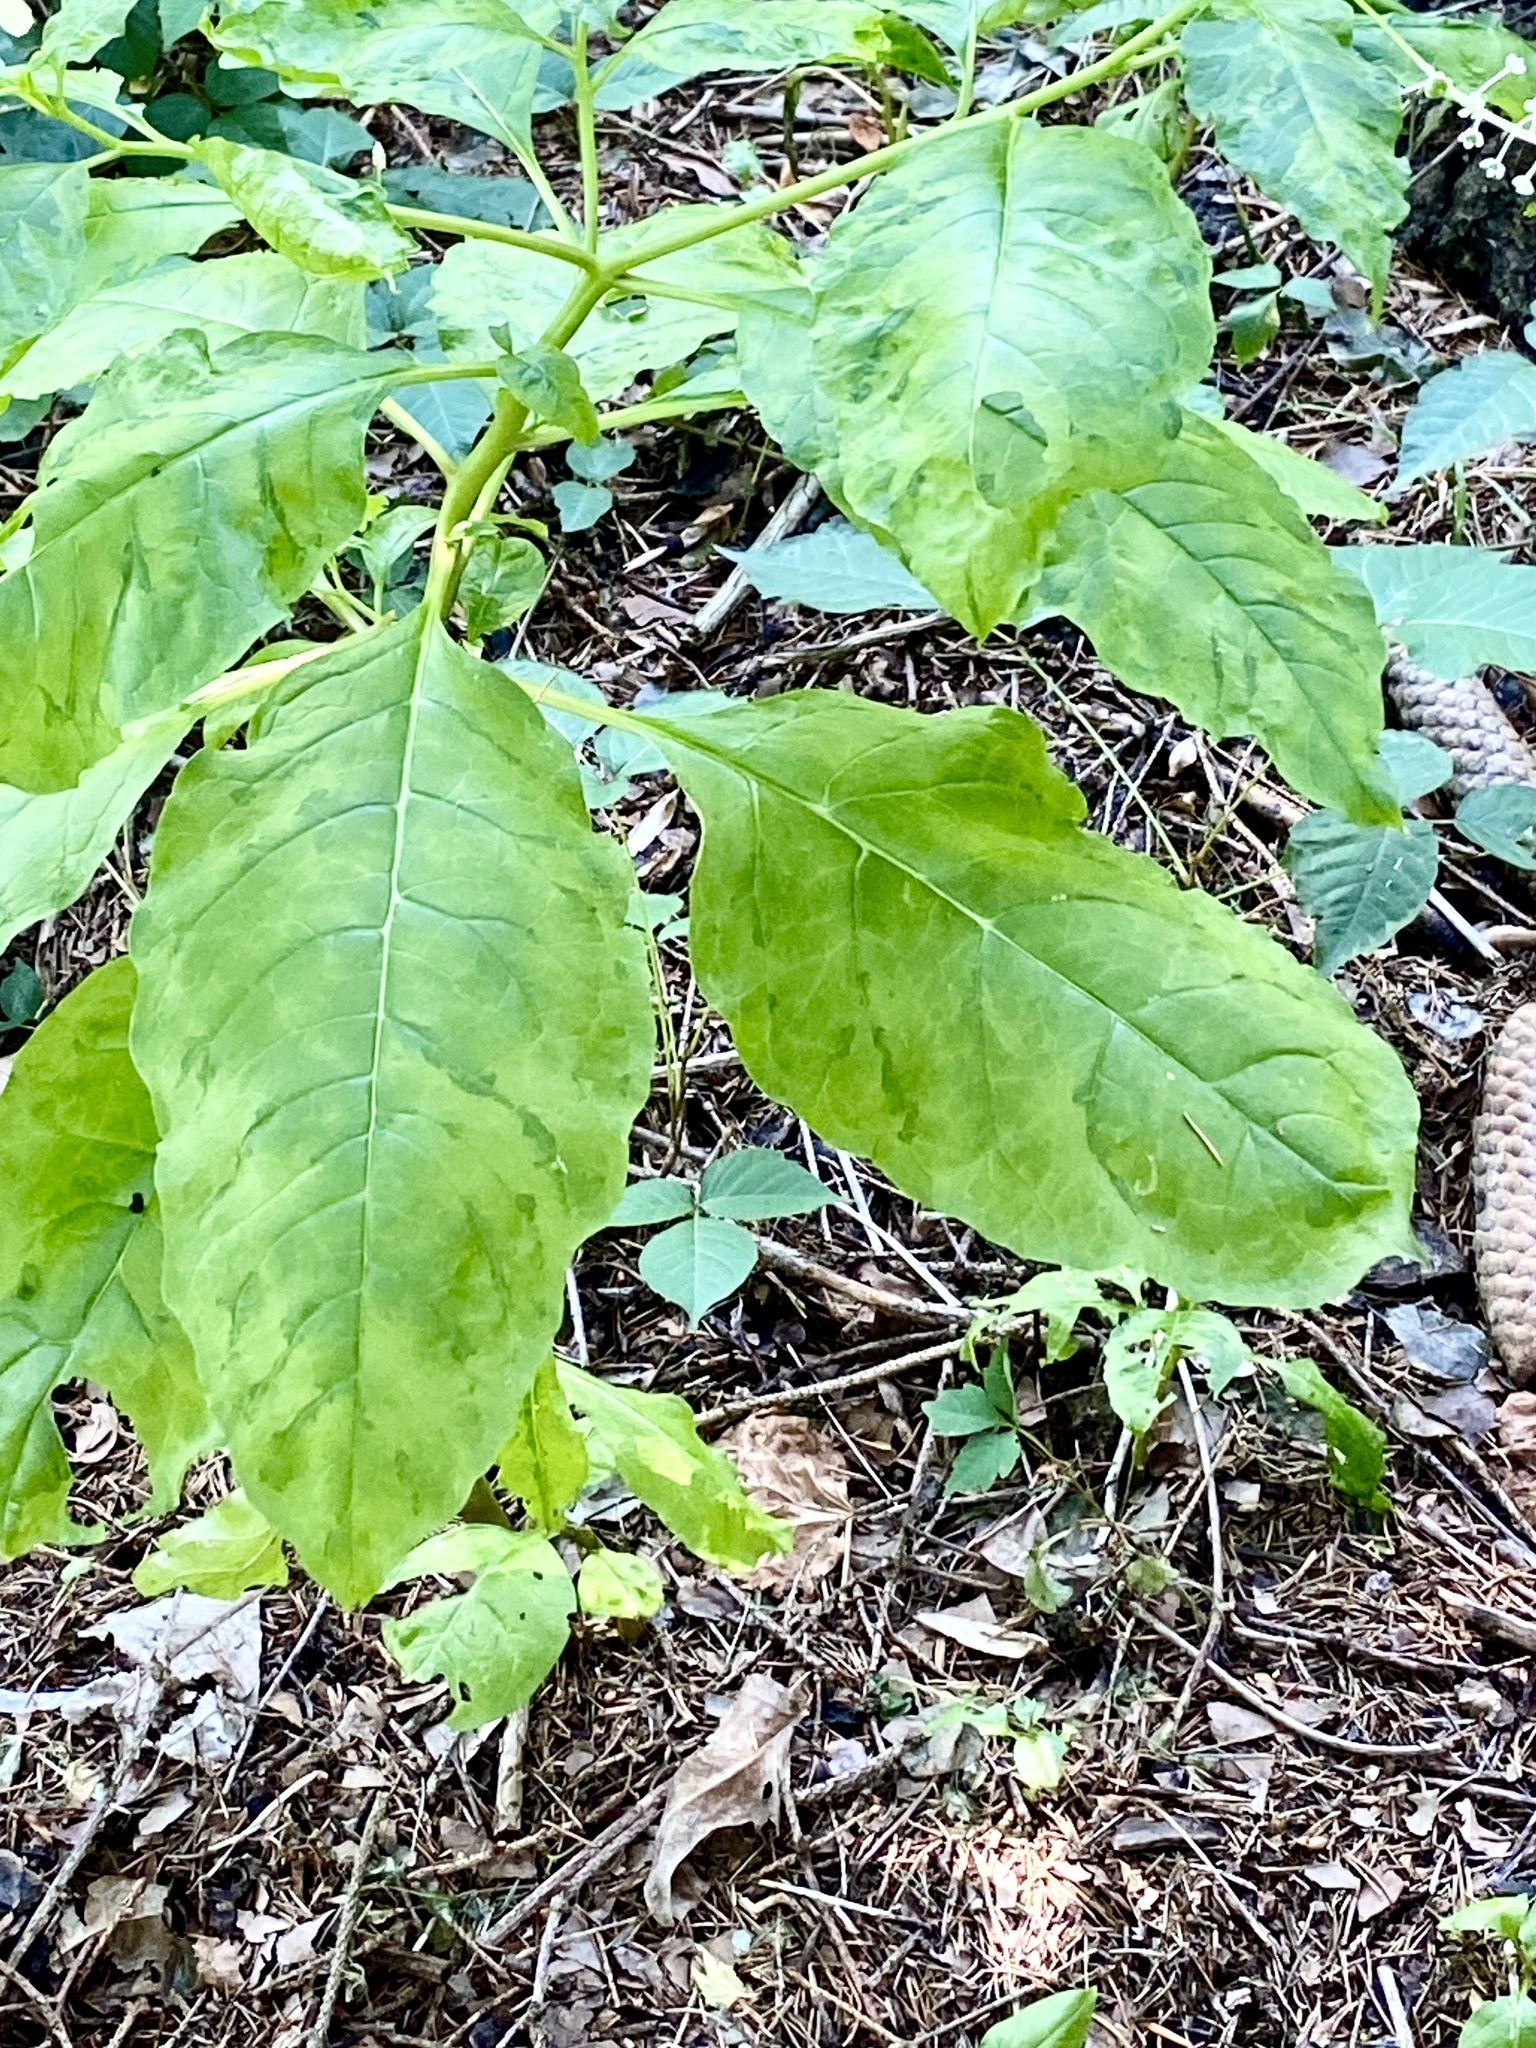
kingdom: Viruses
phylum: Pisuviricota
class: Stelpaviricetes
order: Patatavirales
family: Potyviridae
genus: Potyvirus
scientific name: Potyvirus Pokeweed mosaic virus
